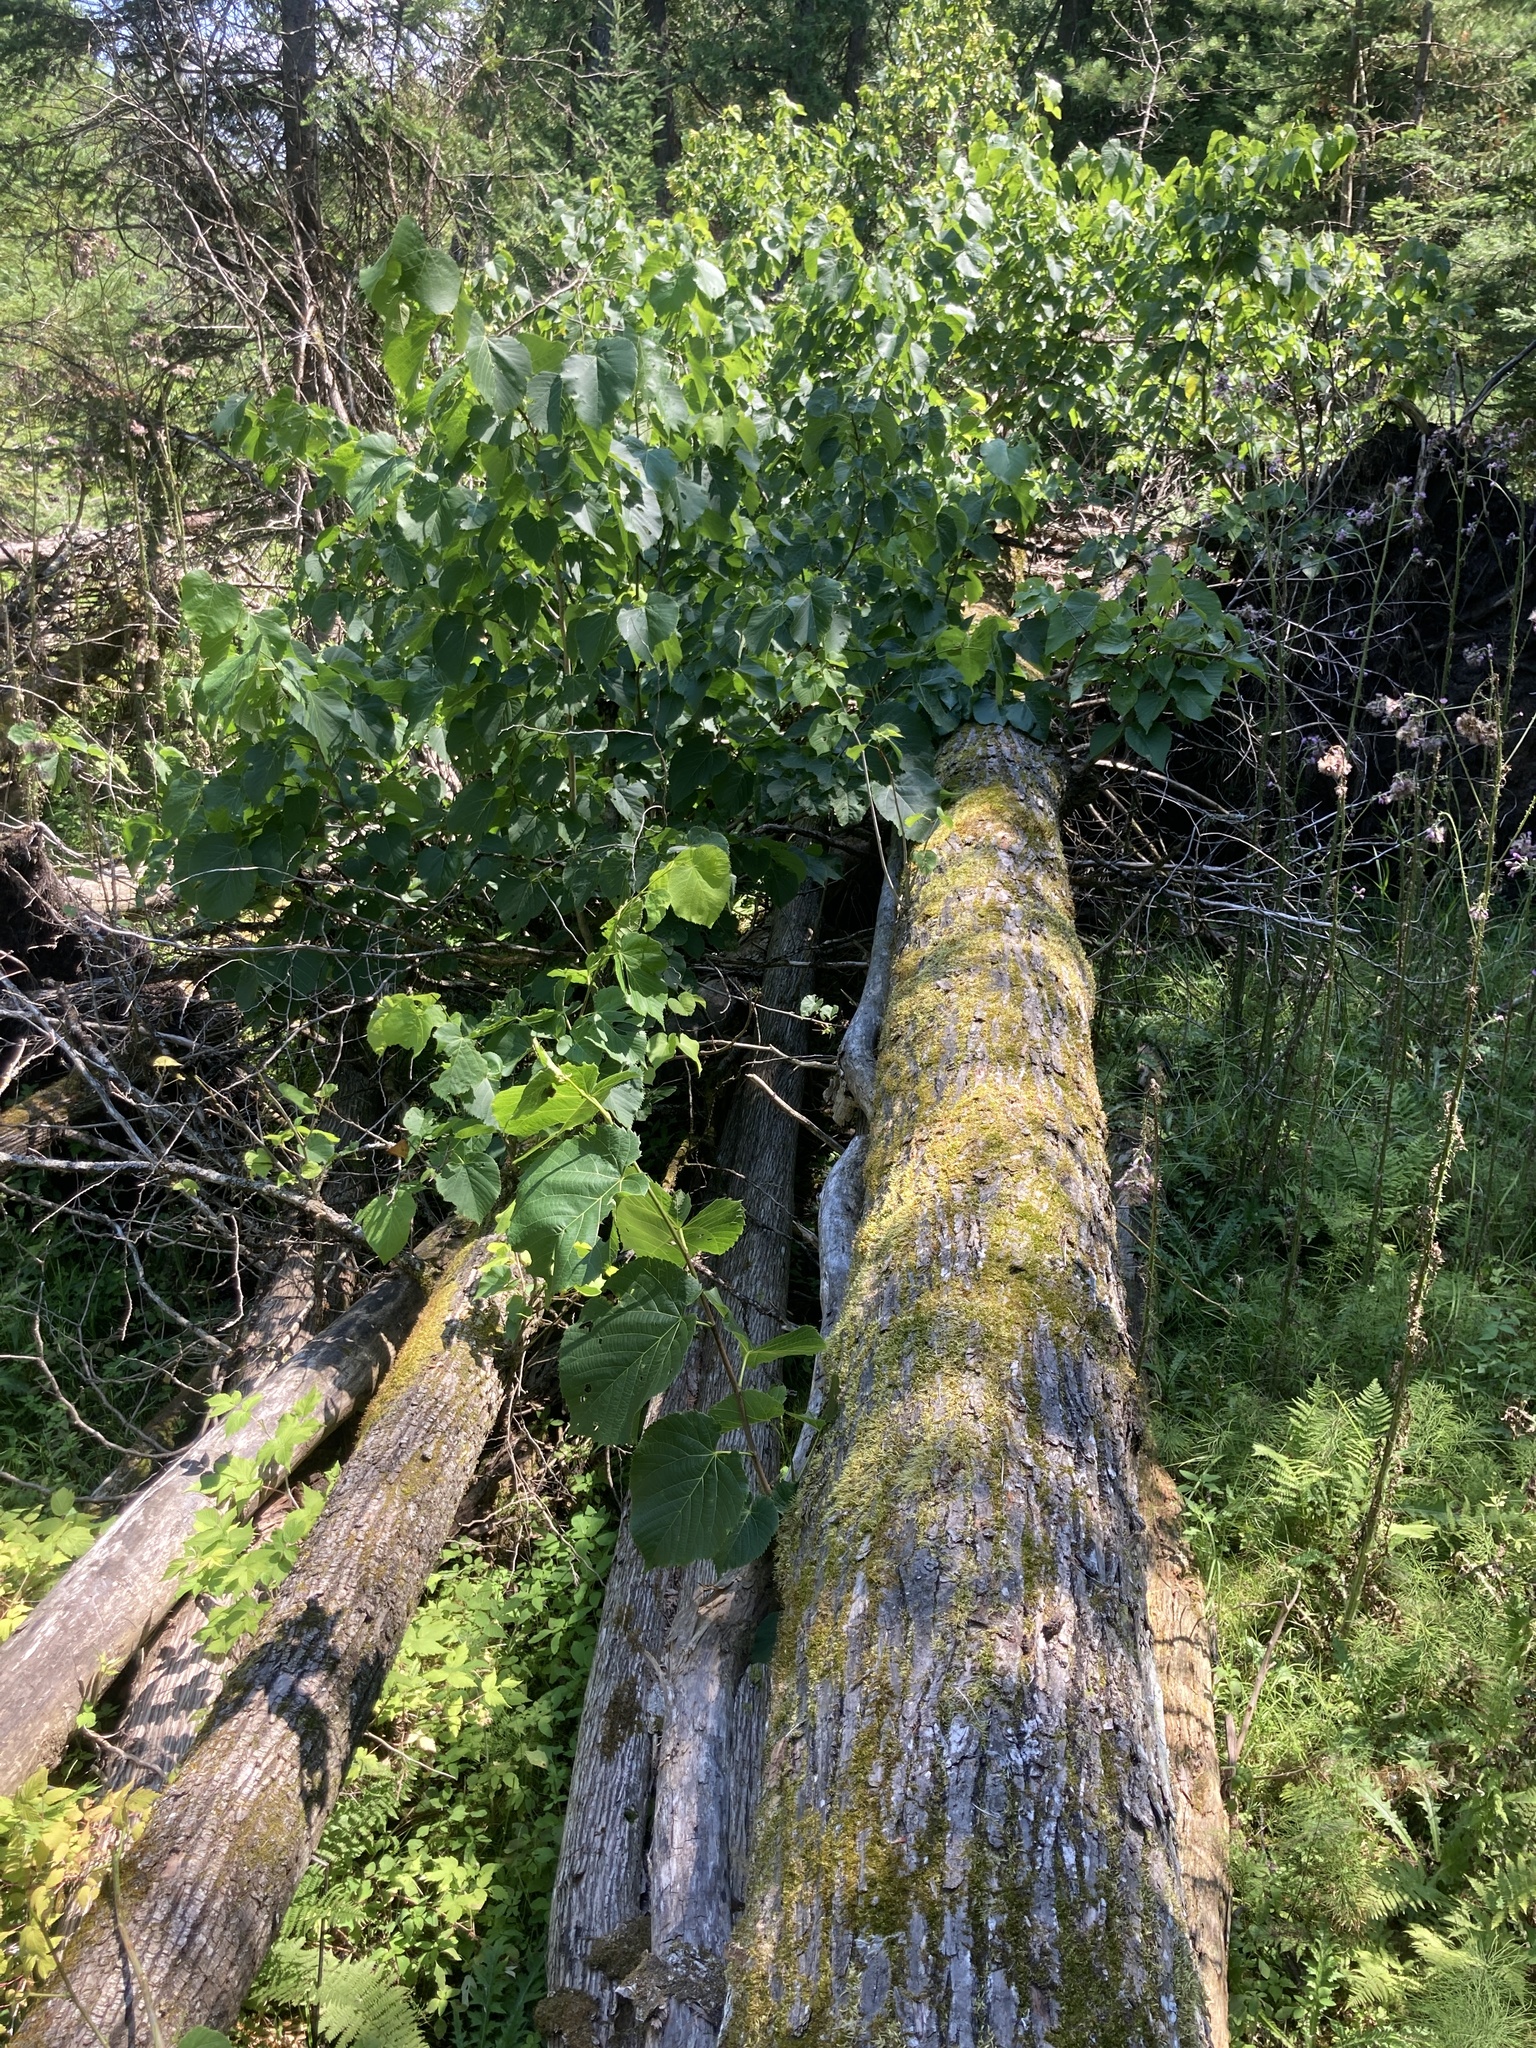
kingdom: Plantae
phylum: Tracheophyta
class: Magnoliopsida
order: Malvales
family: Malvaceae
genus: Tilia
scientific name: Tilia americana
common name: Basswood
